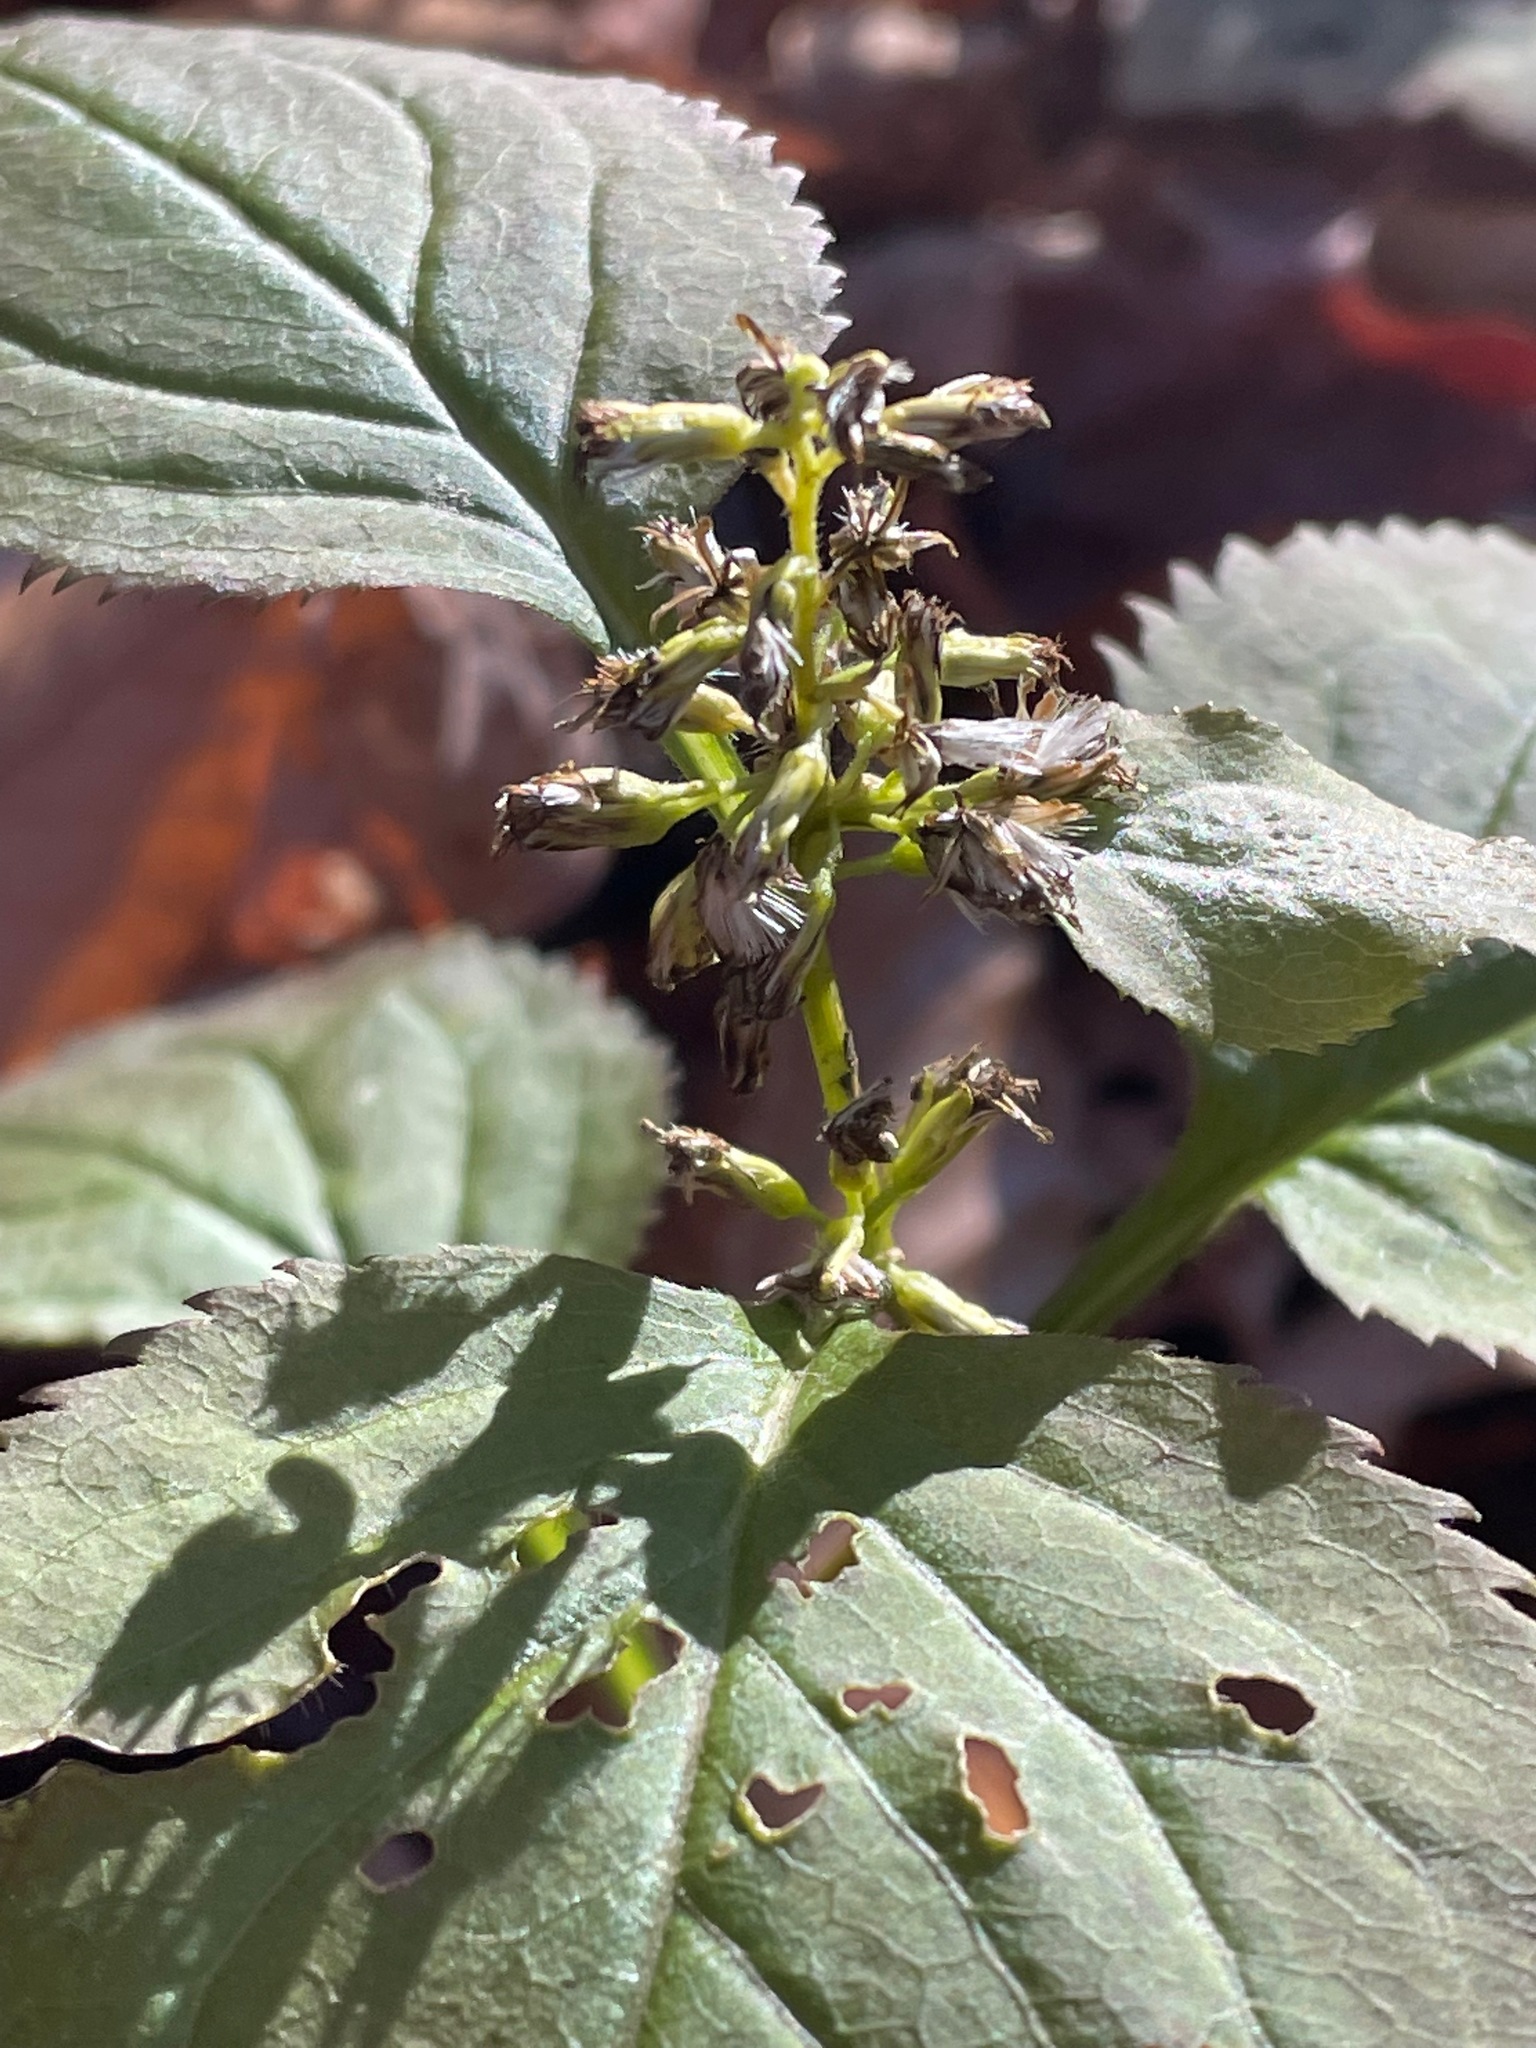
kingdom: Plantae
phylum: Tracheophyta
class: Magnoliopsida
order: Asterales
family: Asteraceae
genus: Solidago
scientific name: Solidago flexicaulis
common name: Zig-zag goldenrod
